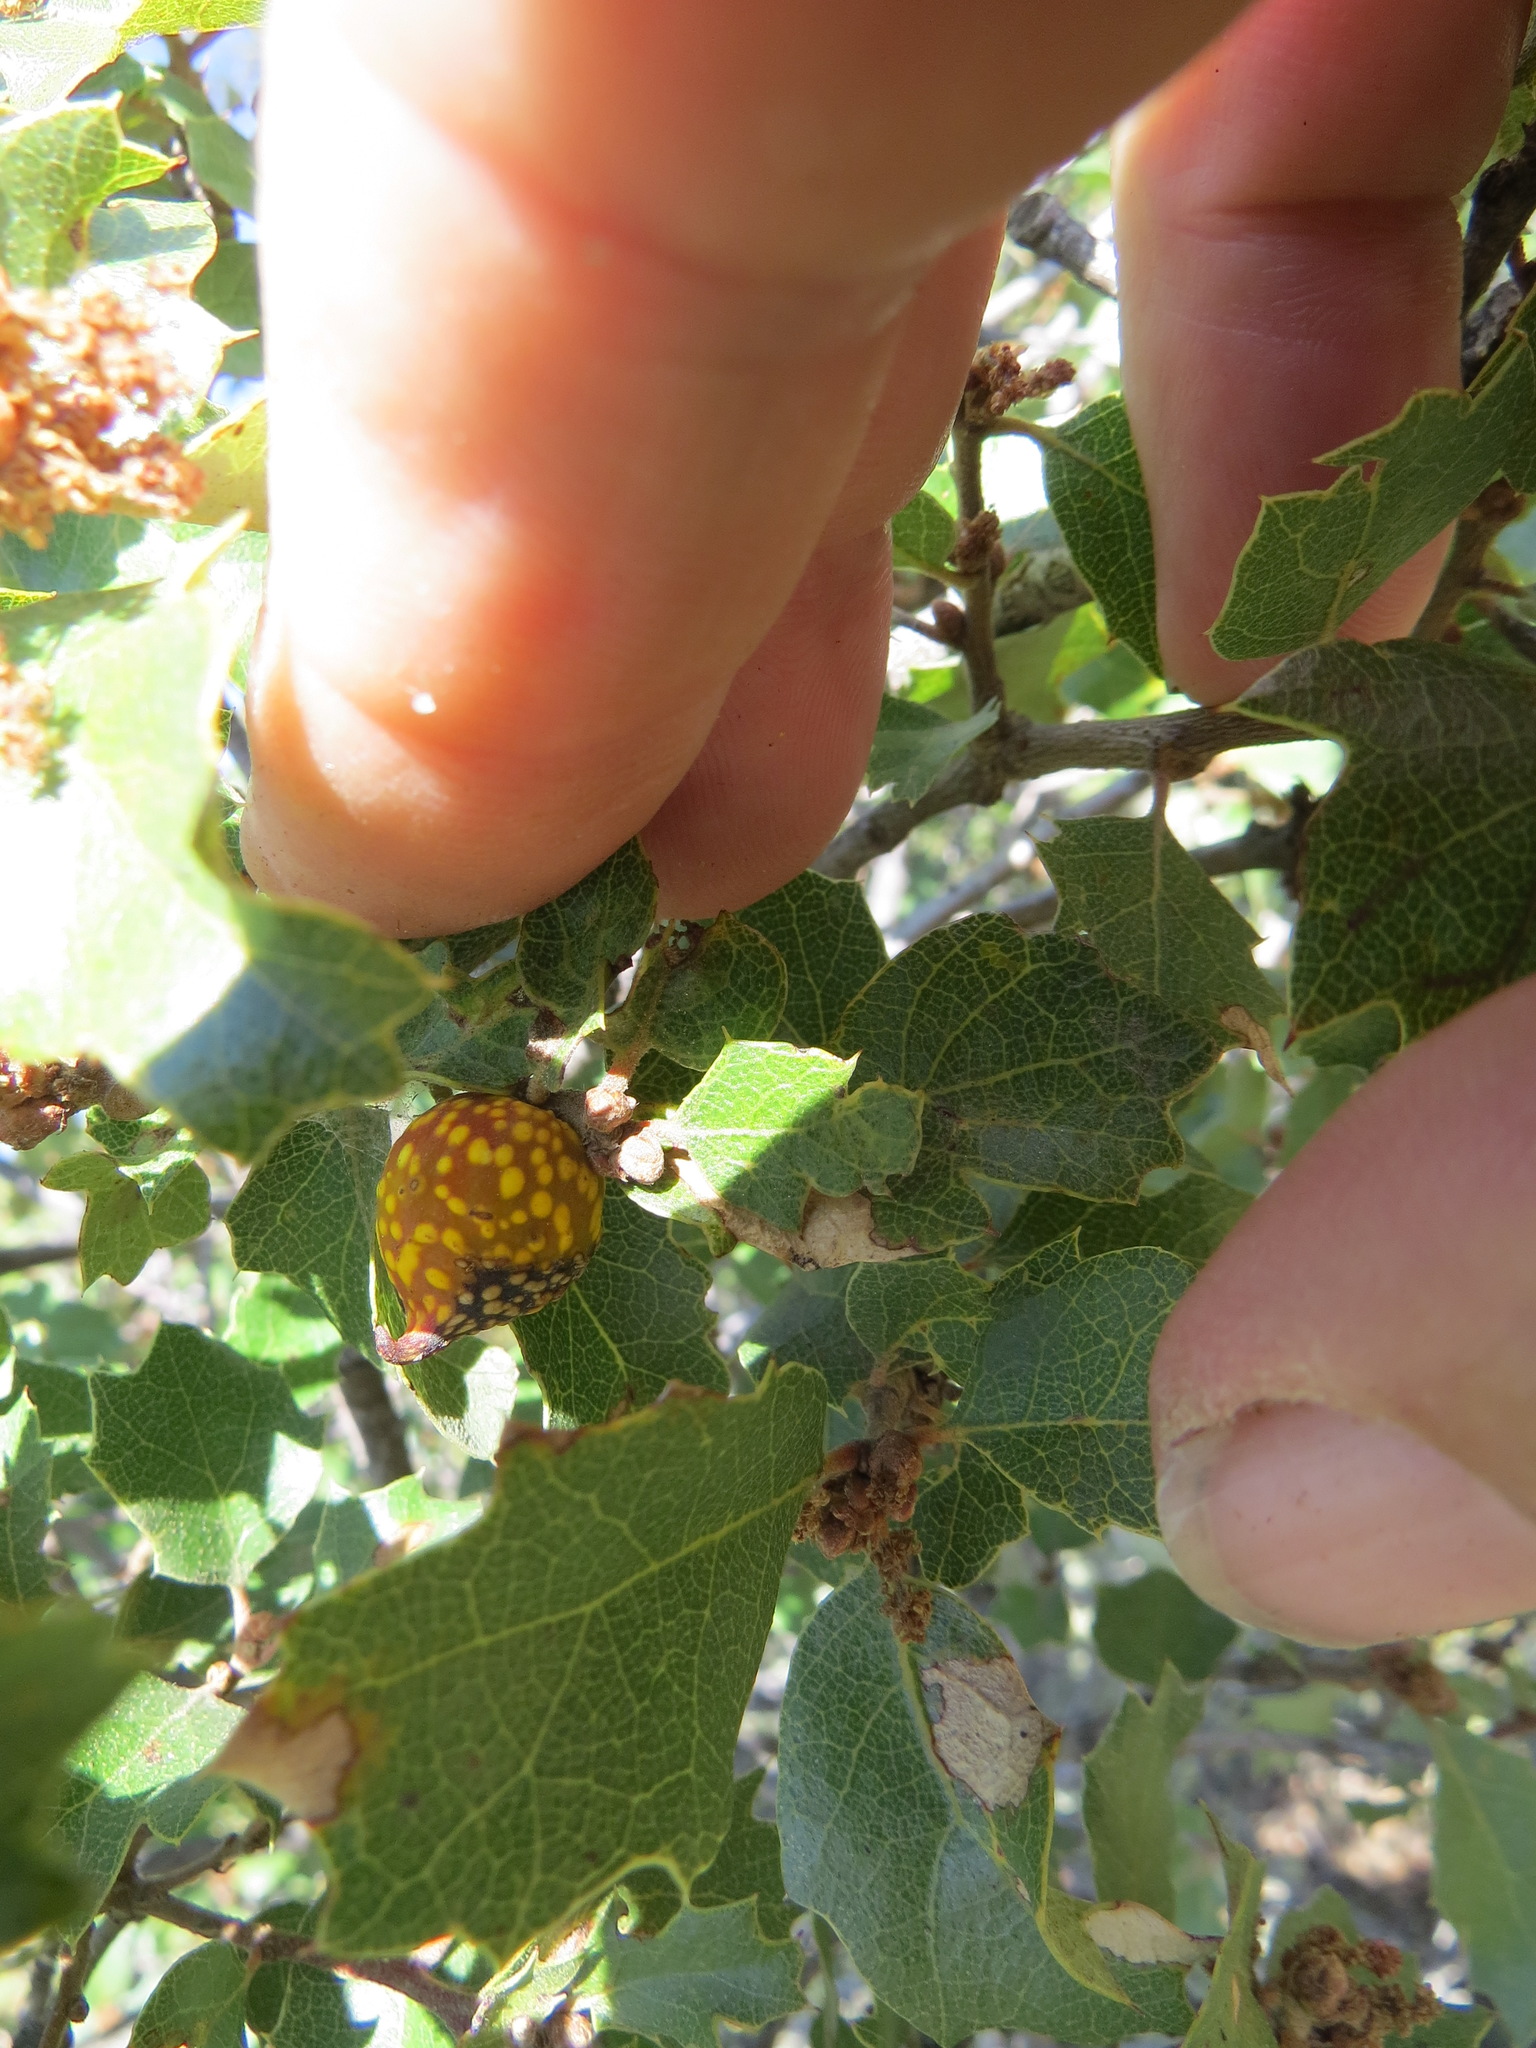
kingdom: Animalia
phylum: Arthropoda
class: Insecta
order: Hymenoptera
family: Cynipidae
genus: Burnettweldia
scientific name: Burnettweldia
